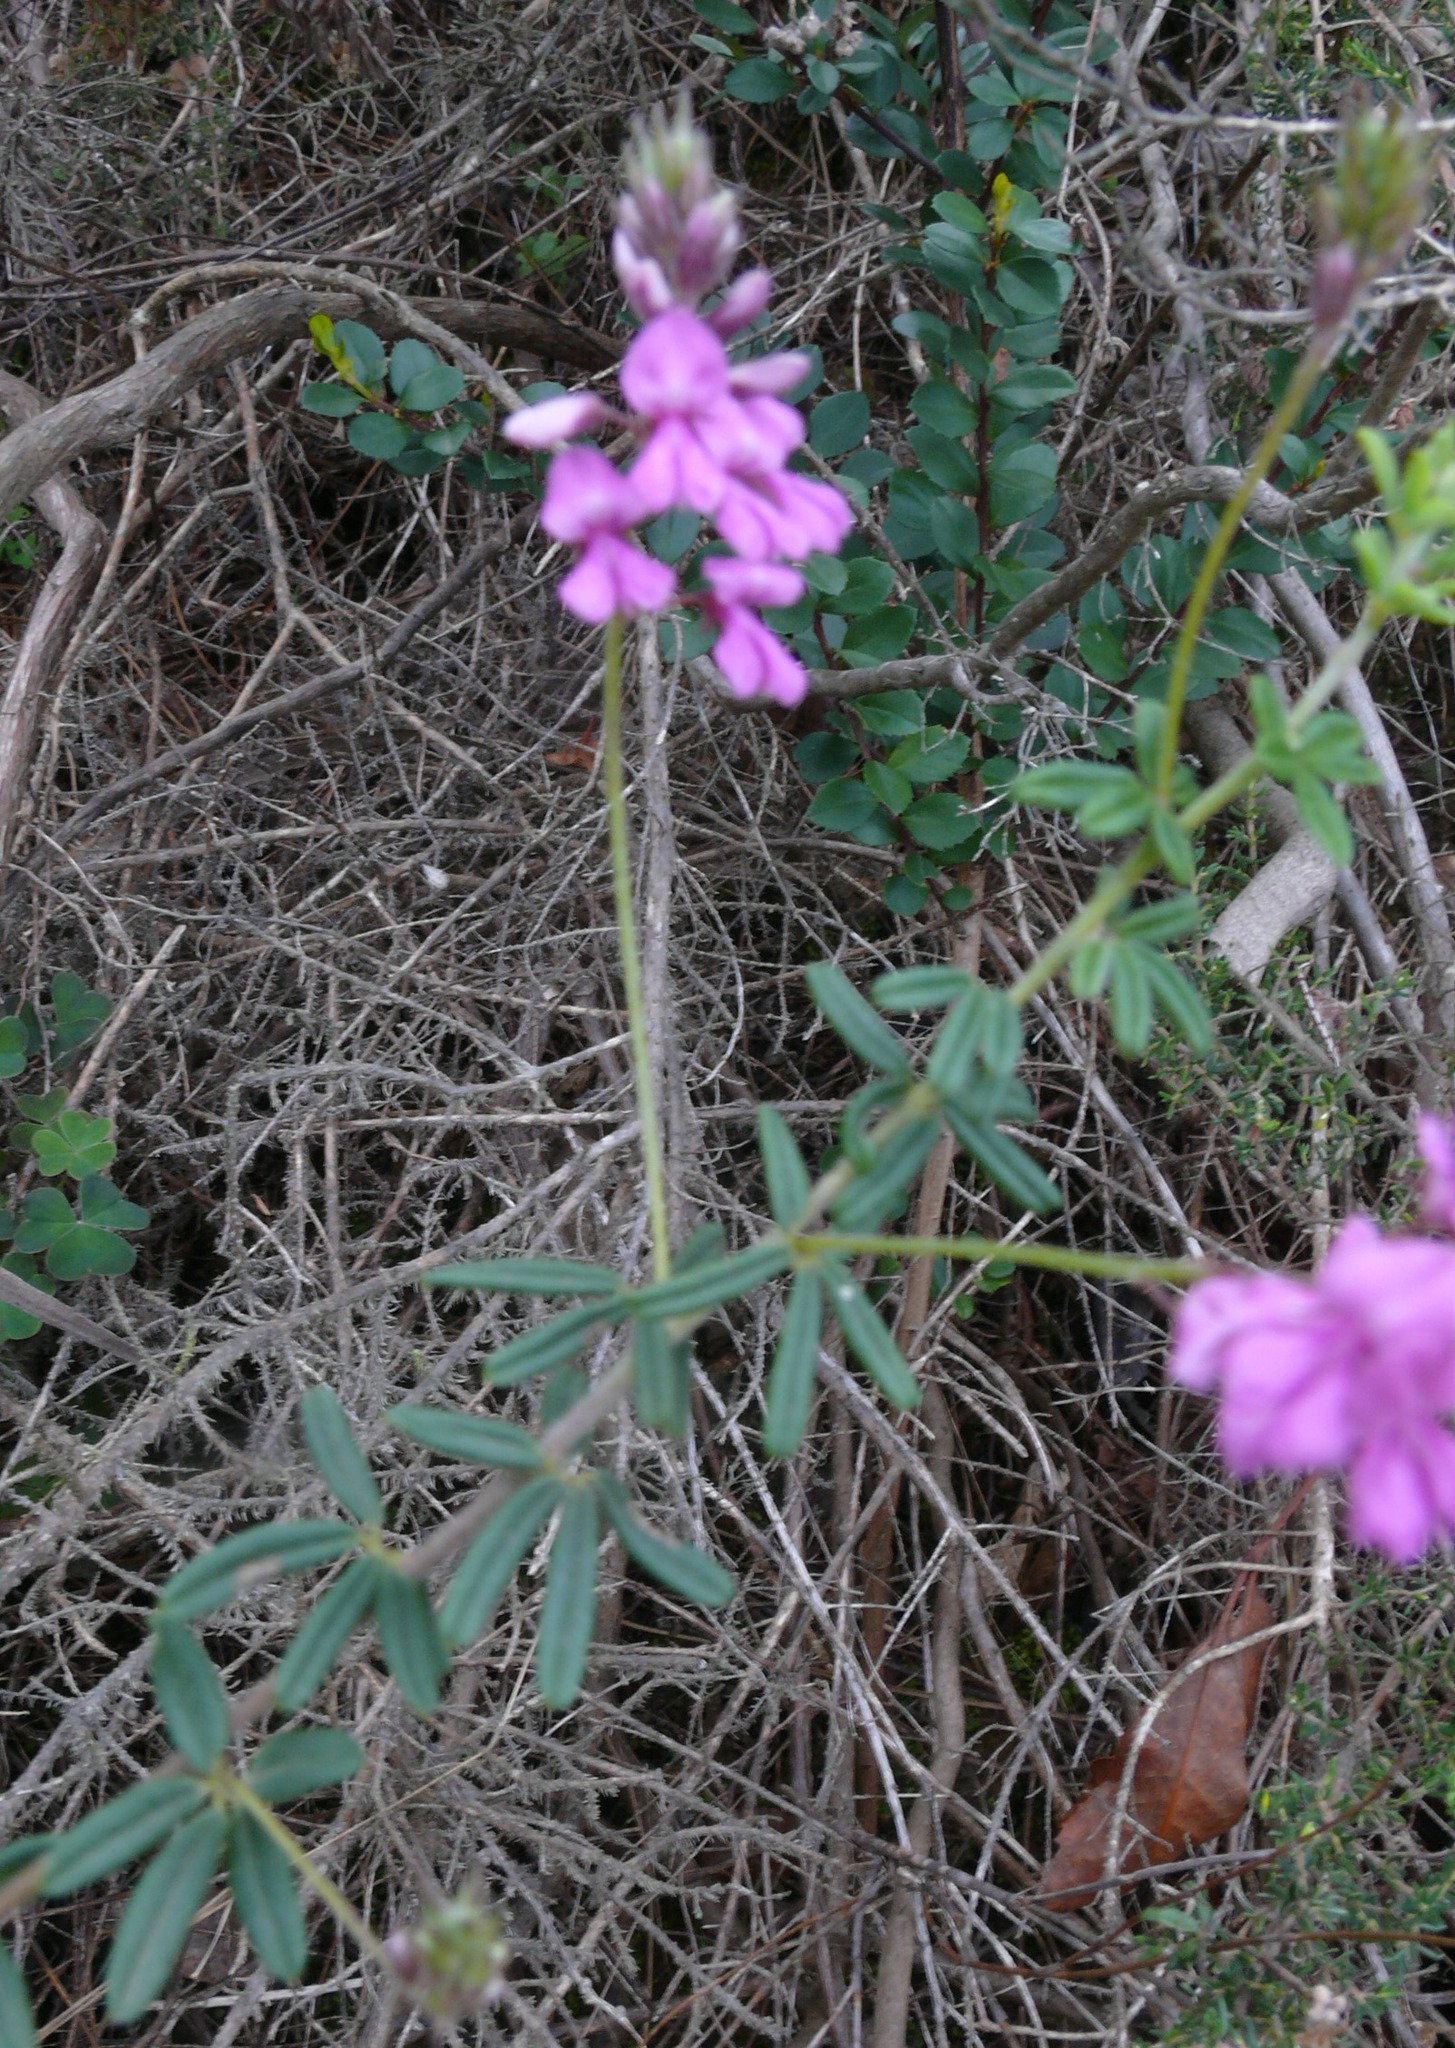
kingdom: Plantae
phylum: Tracheophyta
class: Magnoliopsida
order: Fabales
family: Fabaceae
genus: Indigofera
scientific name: Indigofera filiformis
